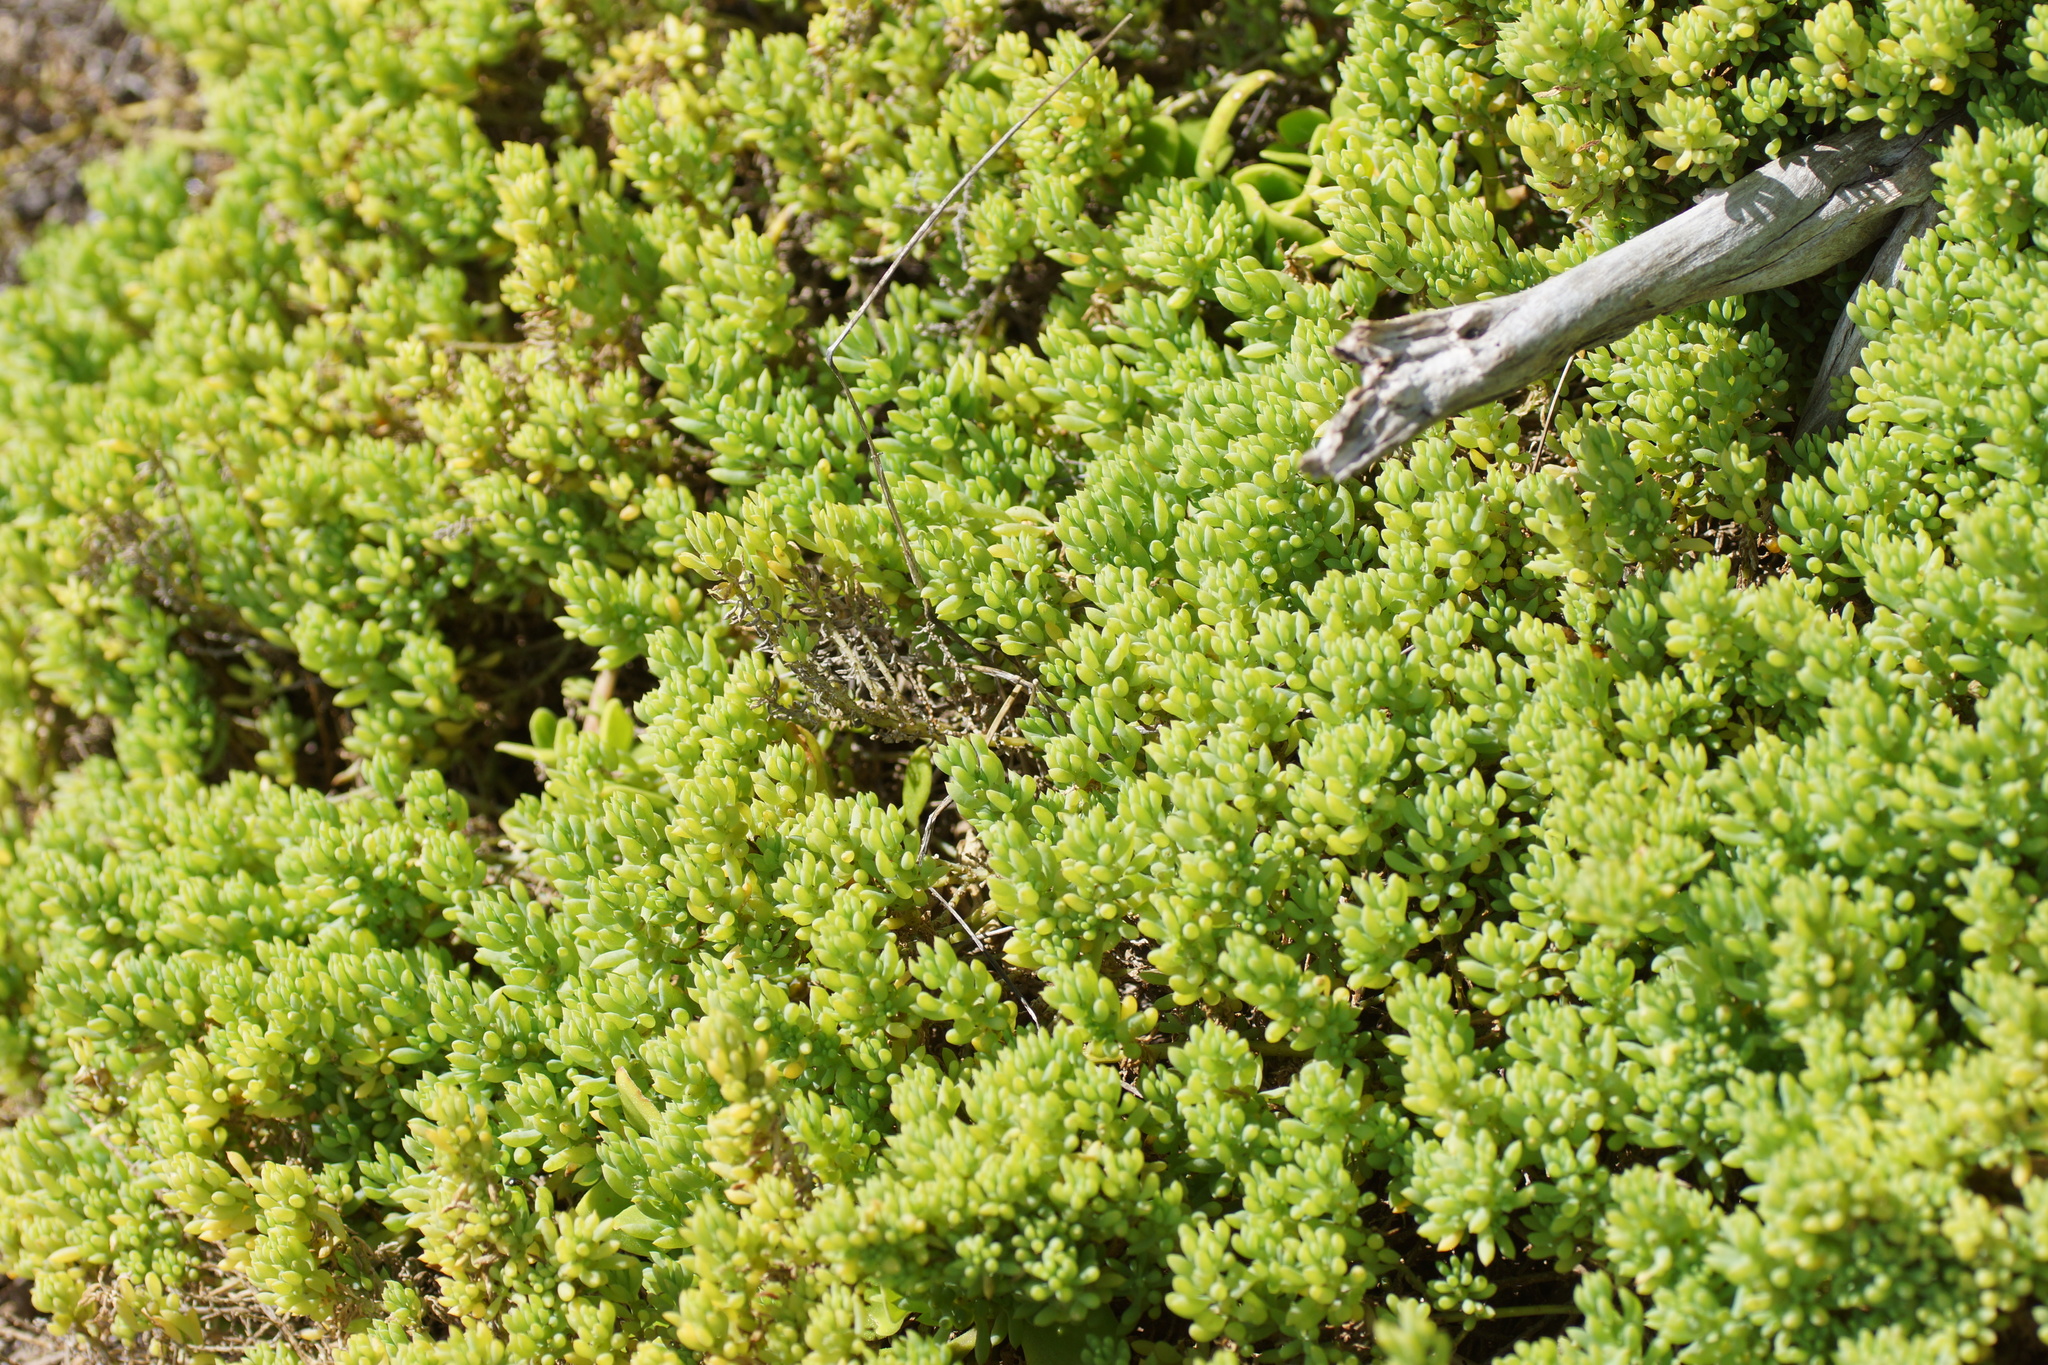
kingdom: Plantae
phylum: Tracheophyta
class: Magnoliopsida
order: Caryophyllales
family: Amaranthaceae
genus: Threlkeldia
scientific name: Threlkeldia diffusa
